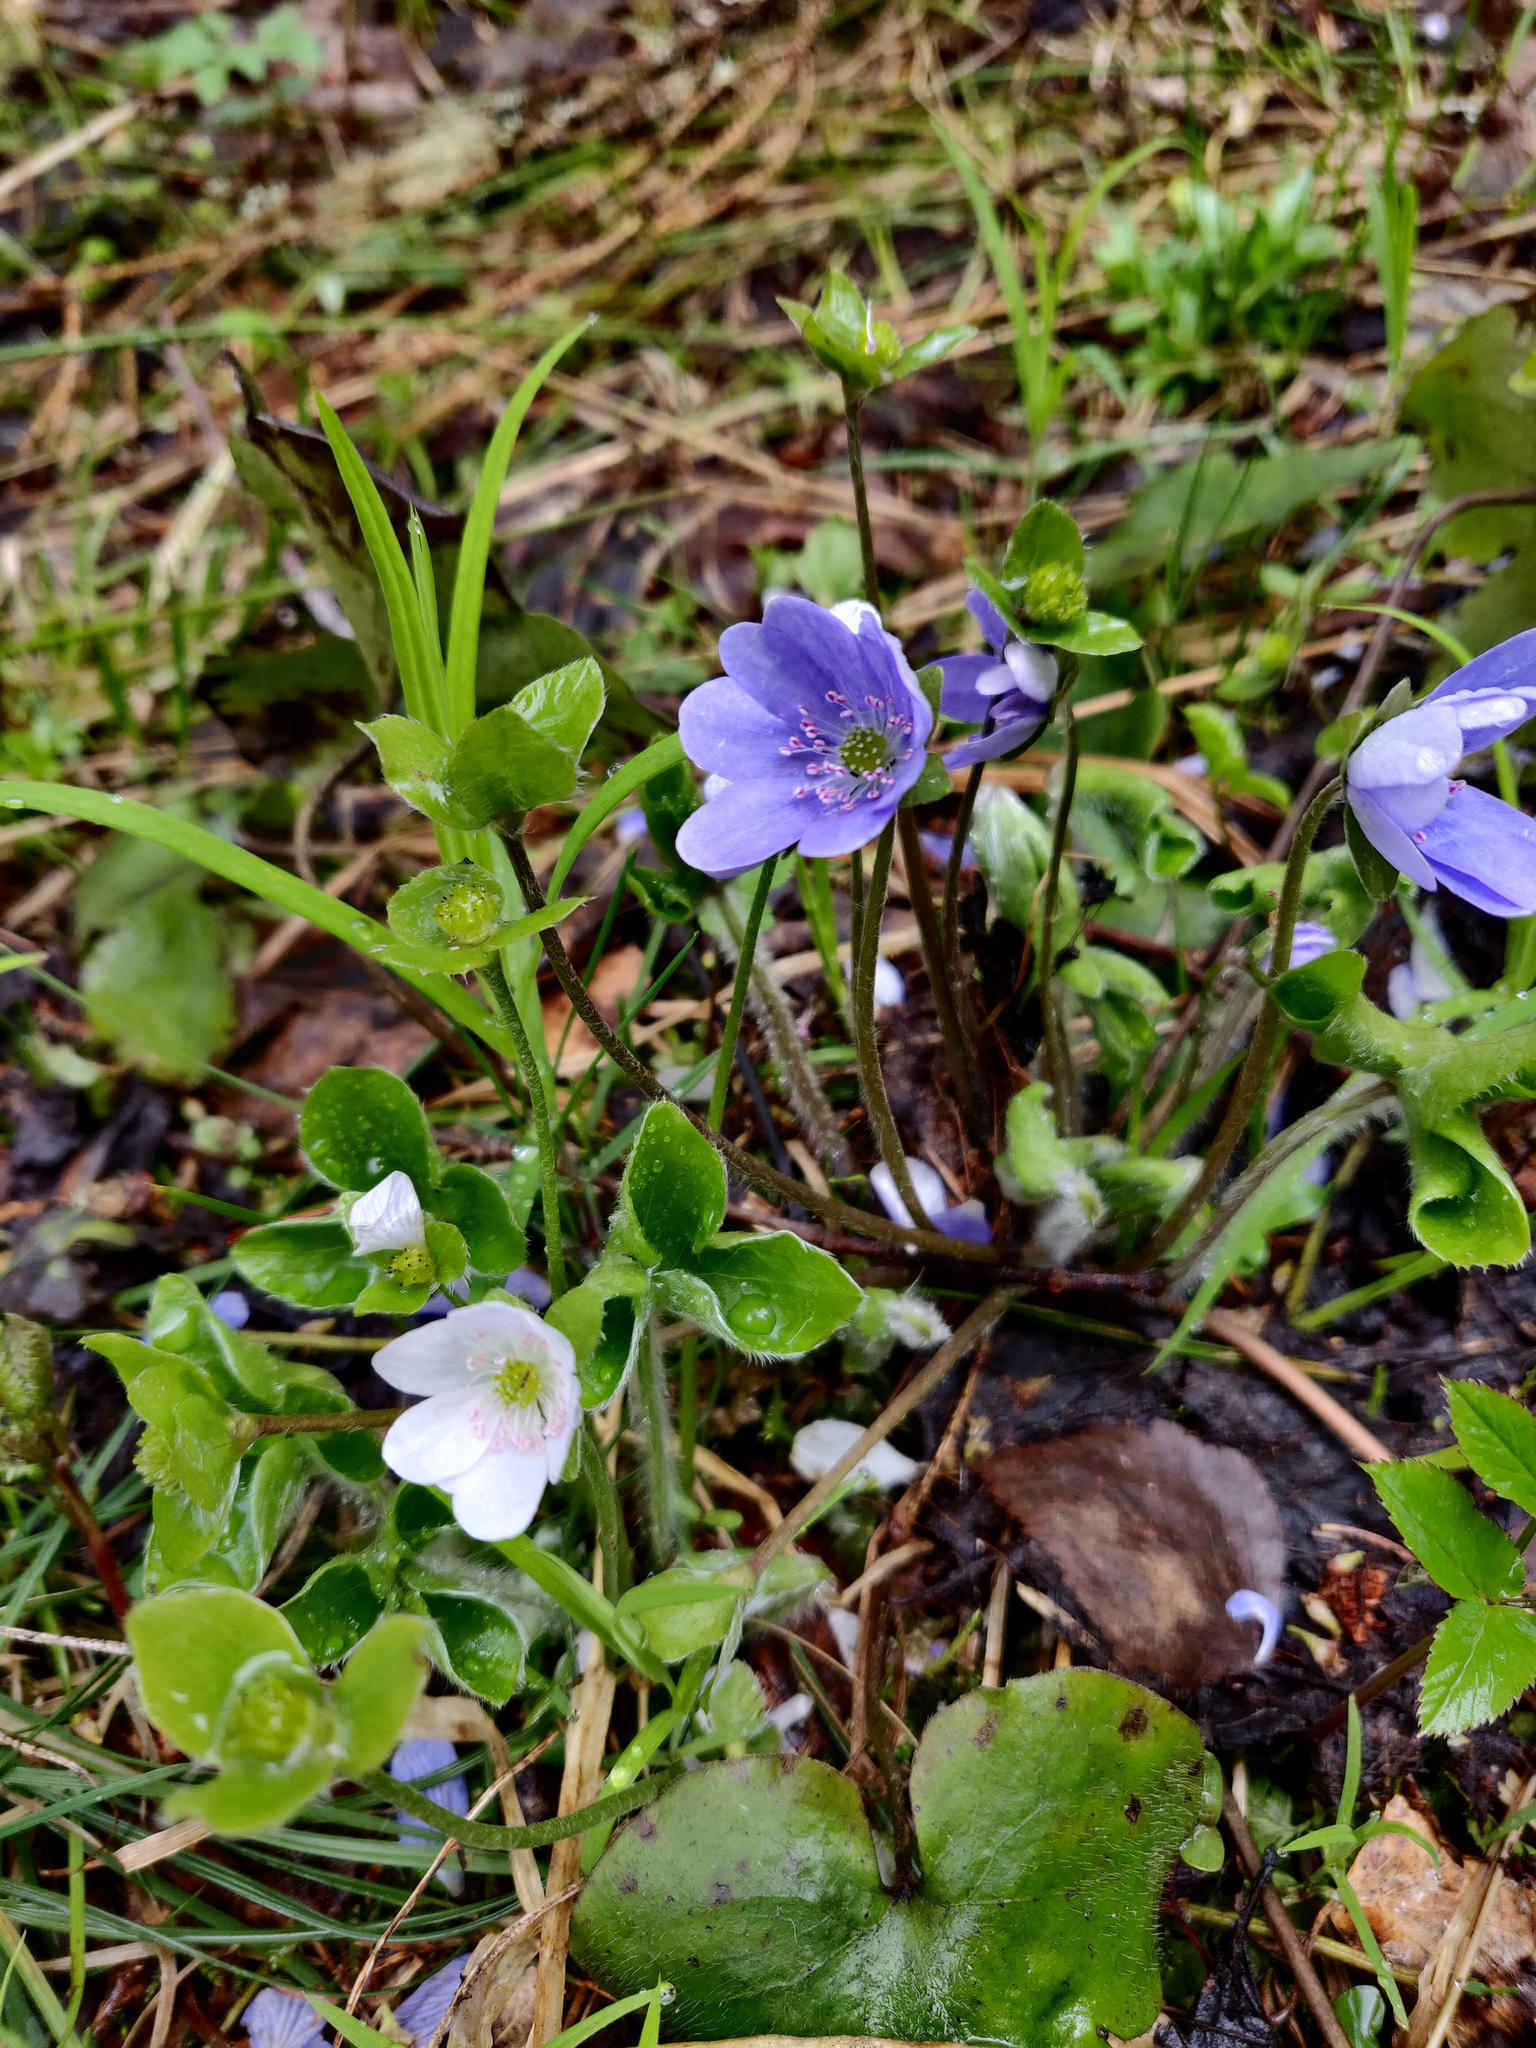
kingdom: Plantae
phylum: Tracheophyta
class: Magnoliopsida
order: Ranunculales
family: Ranunculaceae
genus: Hepatica
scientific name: Hepatica nobilis
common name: Liverleaf
